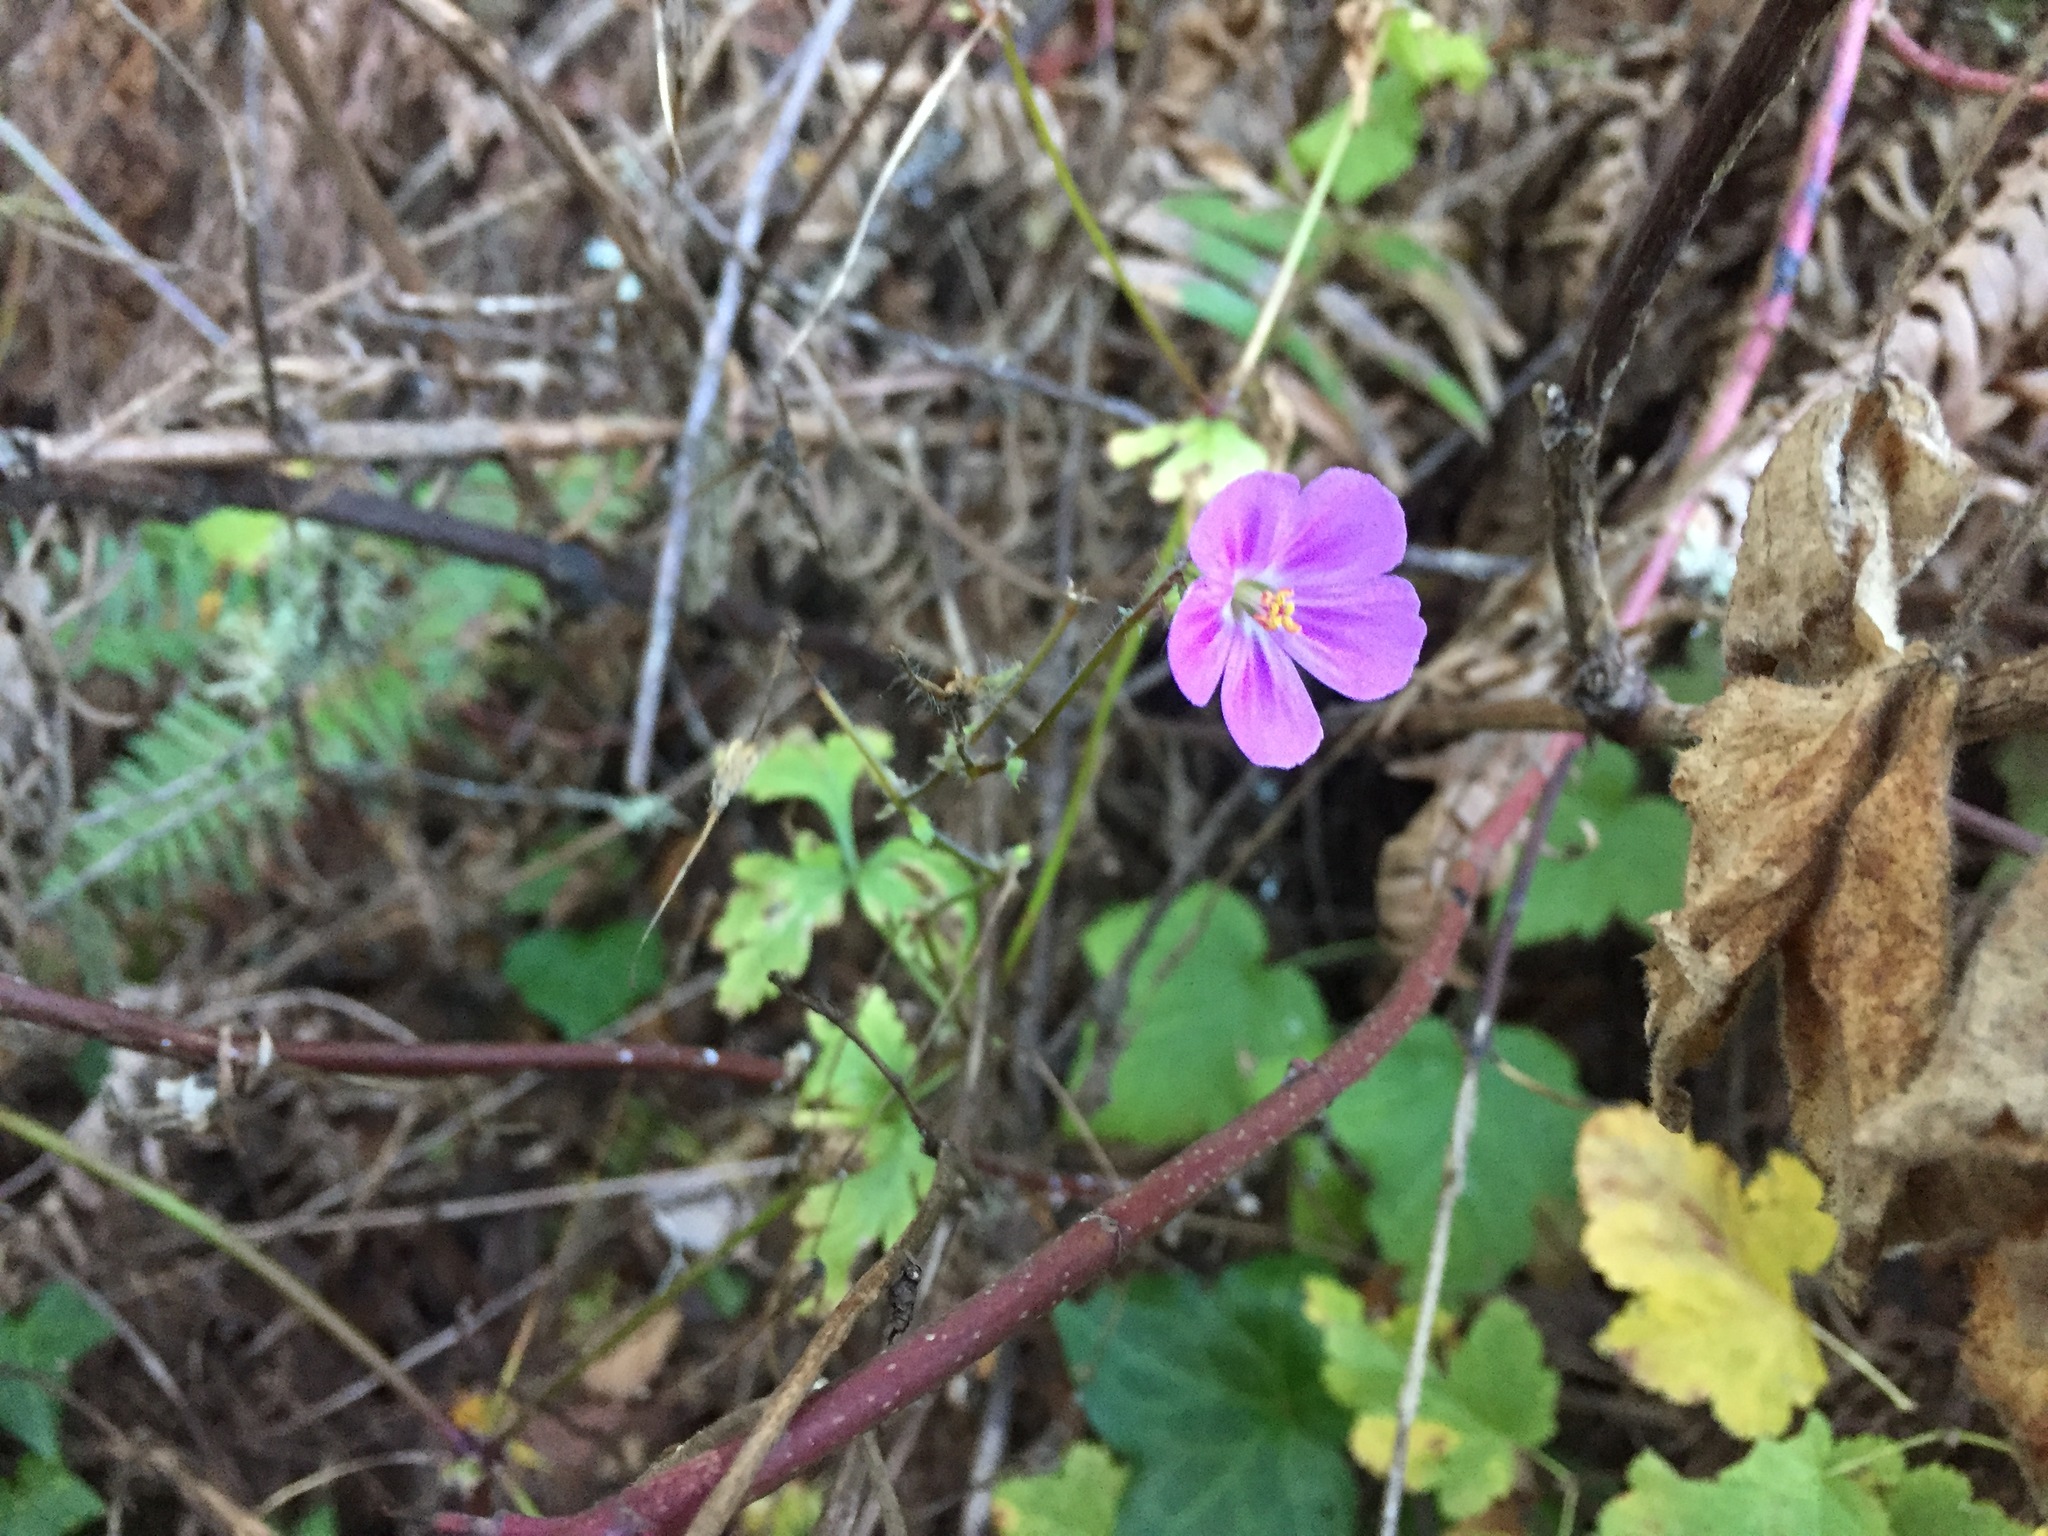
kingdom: Plantae
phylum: Tracheophyta
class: Magnoliopsida
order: Geraniales
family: Geraniaceae
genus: Geranium
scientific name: Geranium robertianum
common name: Herb-robert
